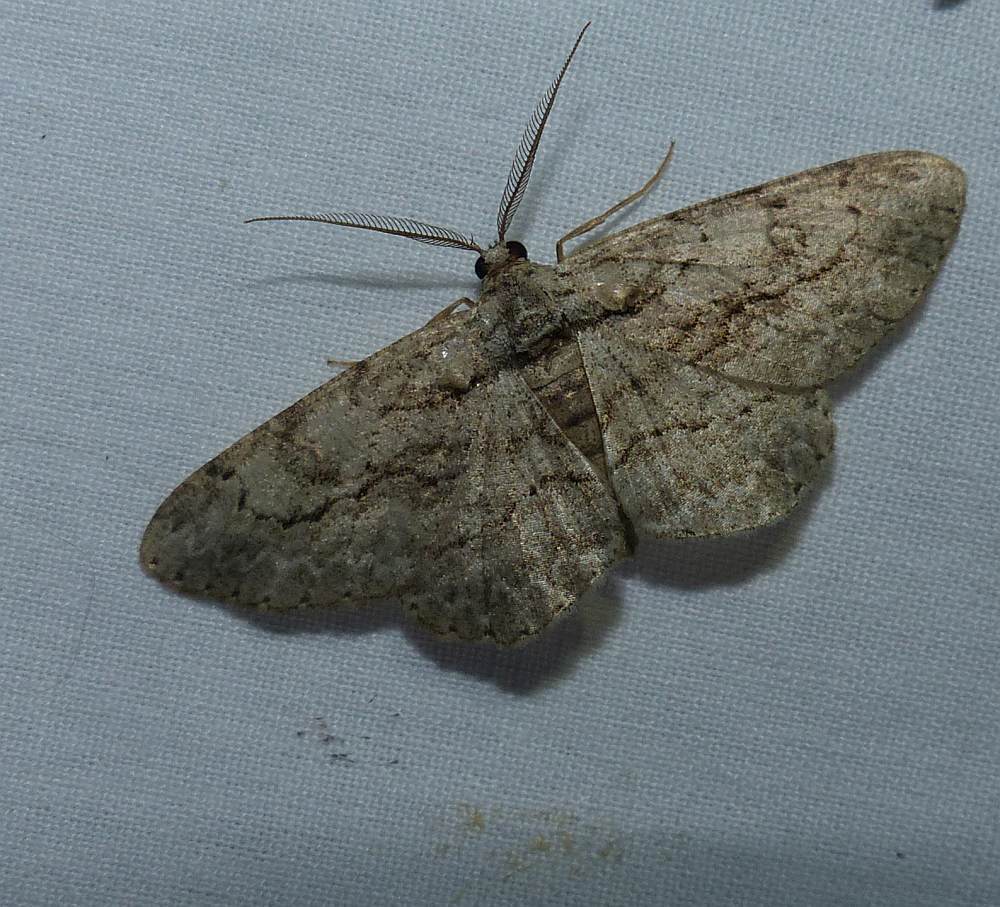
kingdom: Animalia
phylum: Arthropoda
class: Insecta
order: Lepidoptera
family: Geometridae
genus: Anavitrinella
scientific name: Anavitrinella pampinaria
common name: Common gray
